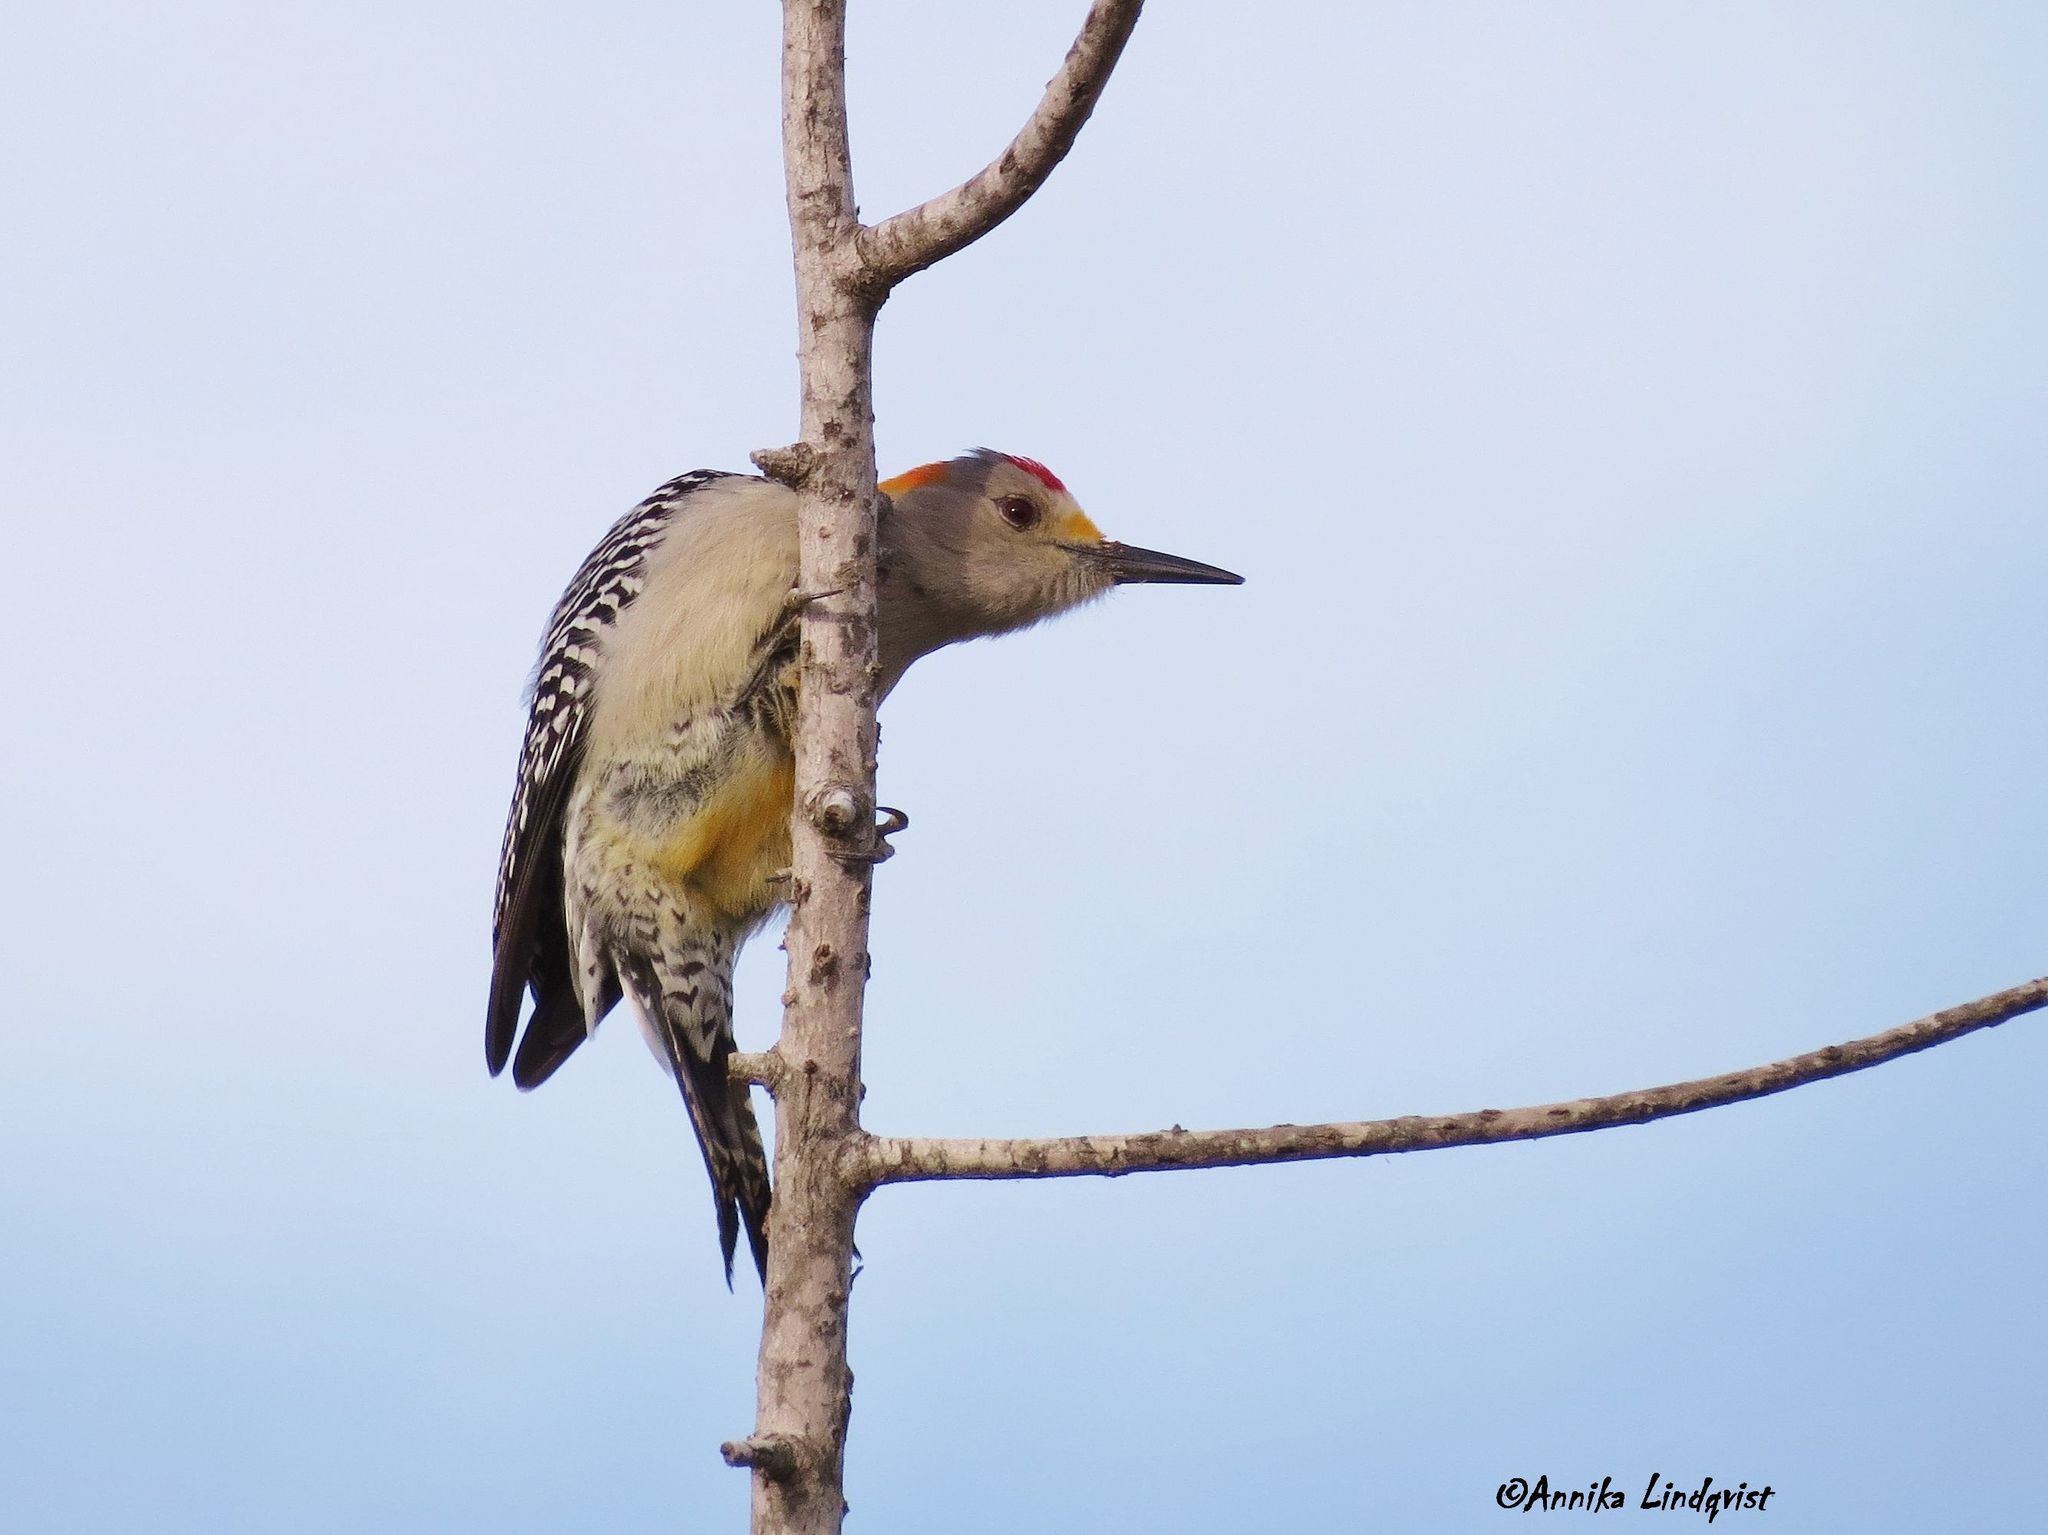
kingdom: Animalia
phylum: Chordata
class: Aves
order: Piciformes
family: Picidae
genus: Melanerpes
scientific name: Melanerpes aurifrons
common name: Golden-fronted woodpecker
